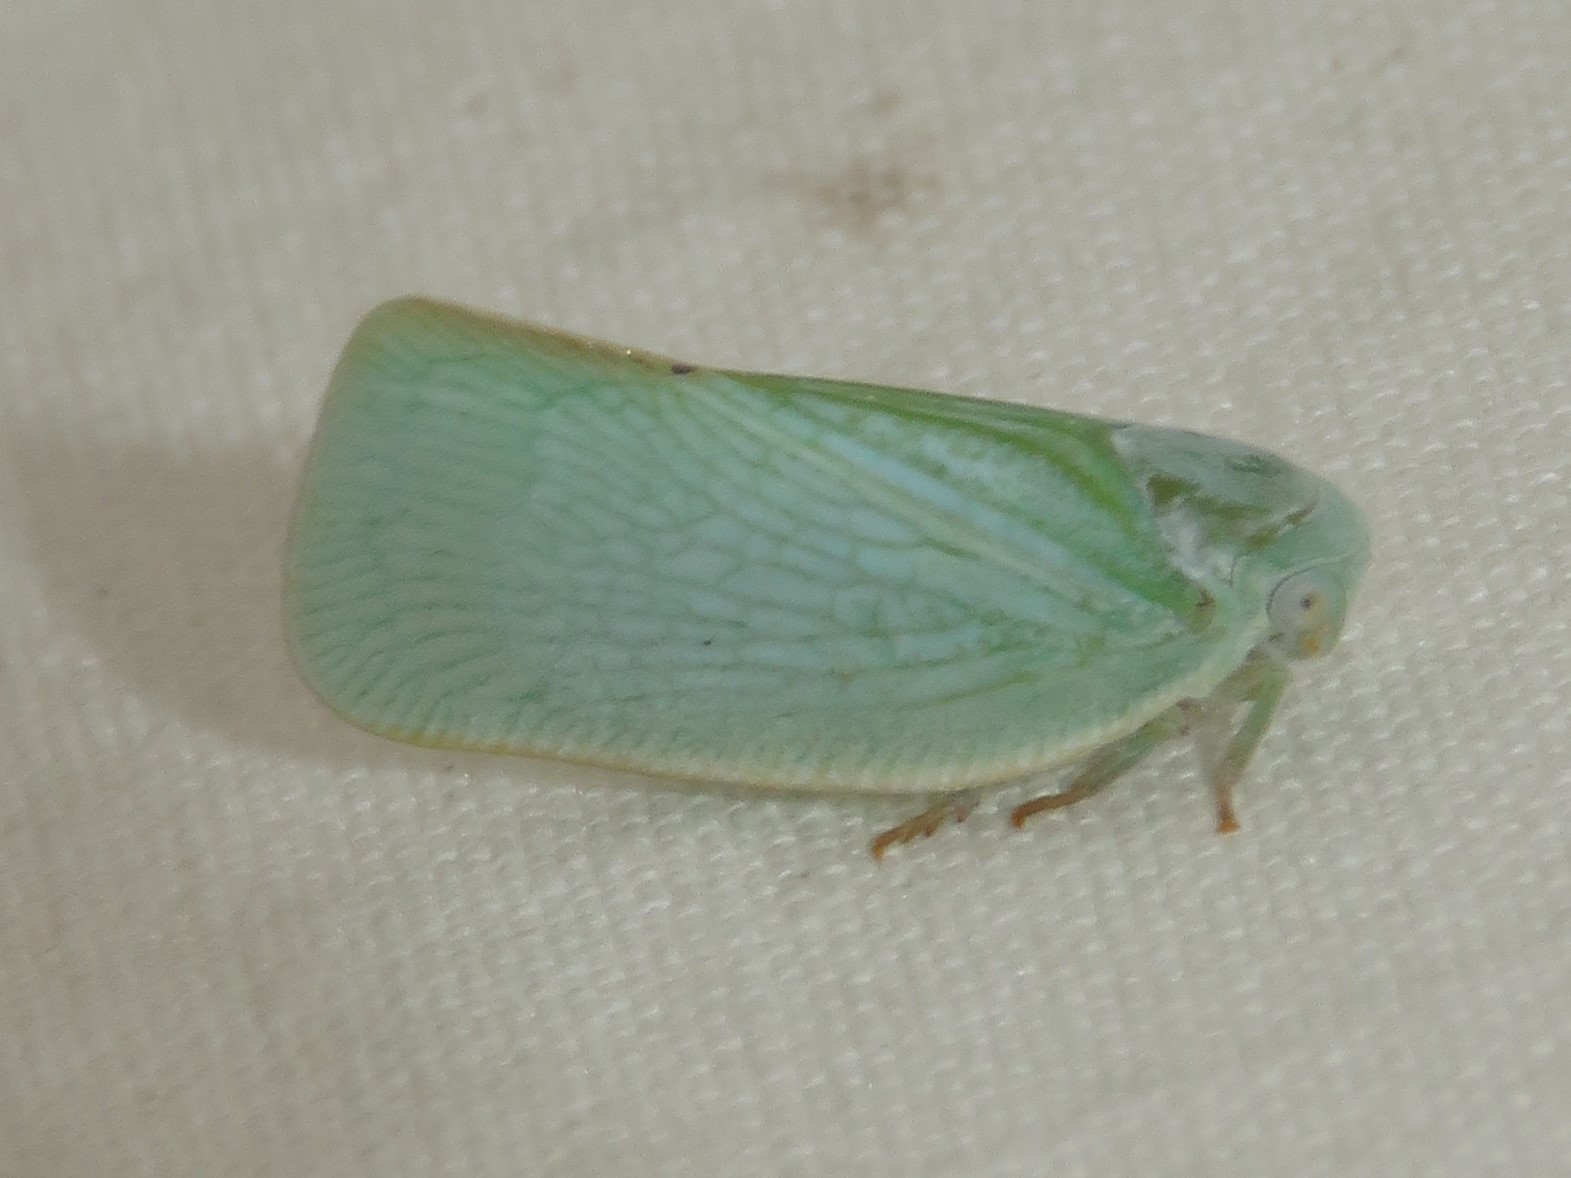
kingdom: Animalia
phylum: Arthropoda
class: Insecta
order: Hemiptera
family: Flatidae
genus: Flatormenis
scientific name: Flatormenis proxima
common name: Northern flatid planthopper
